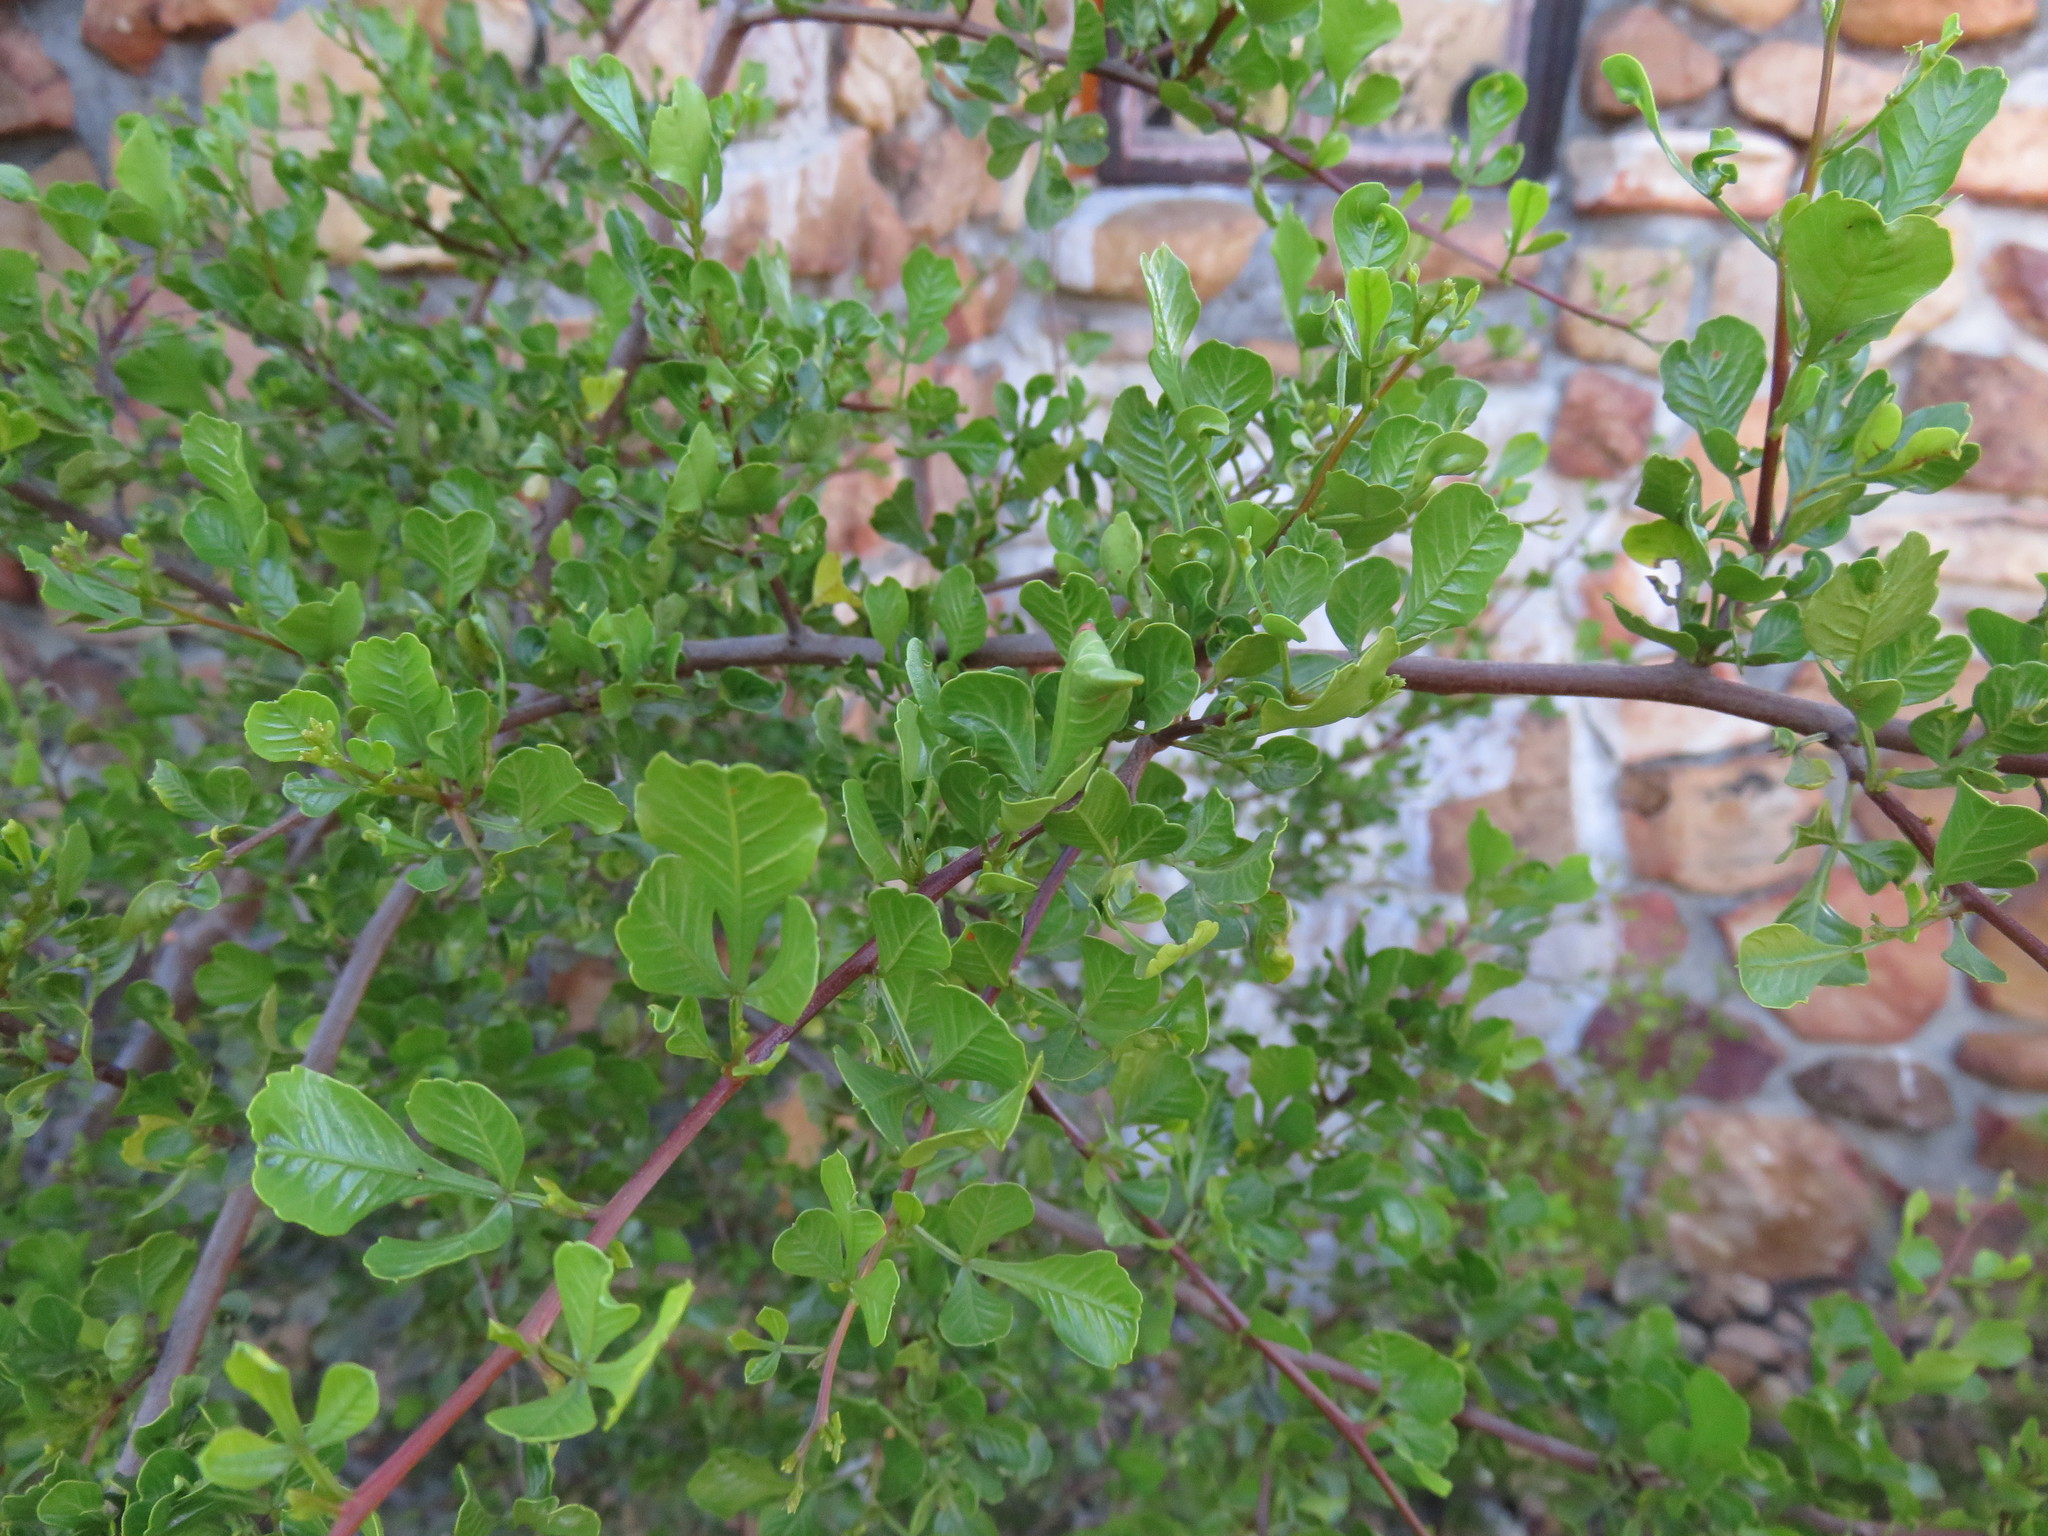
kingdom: Plantae
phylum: Tracheophyta
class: Magnoliopsida
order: Sapindales
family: Anacardiaceae
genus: Searsia
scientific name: Searsia undulata
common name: Namaqua kunibush
